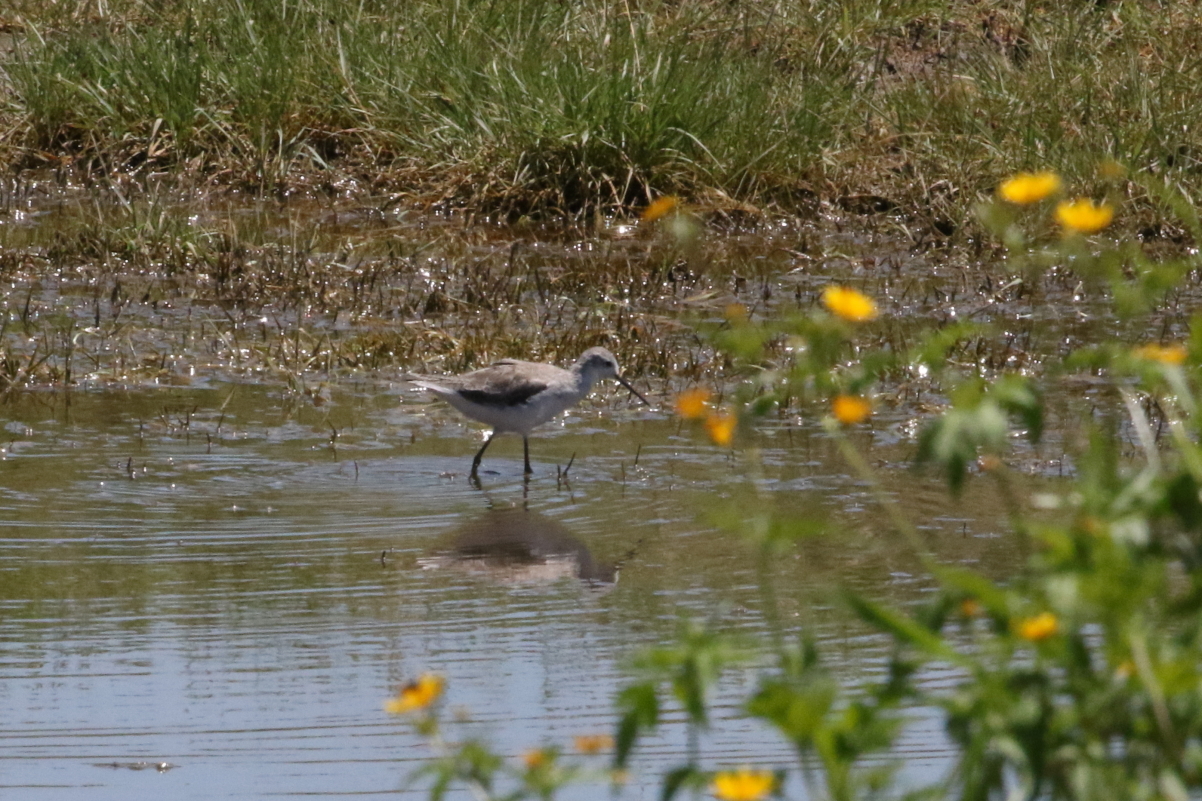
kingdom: Animalia
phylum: Chordata
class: Aves
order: Charadriiformes
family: Scolopacidae
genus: Tringa
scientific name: Tringa stagnatilis
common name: Marsh sandpiper
